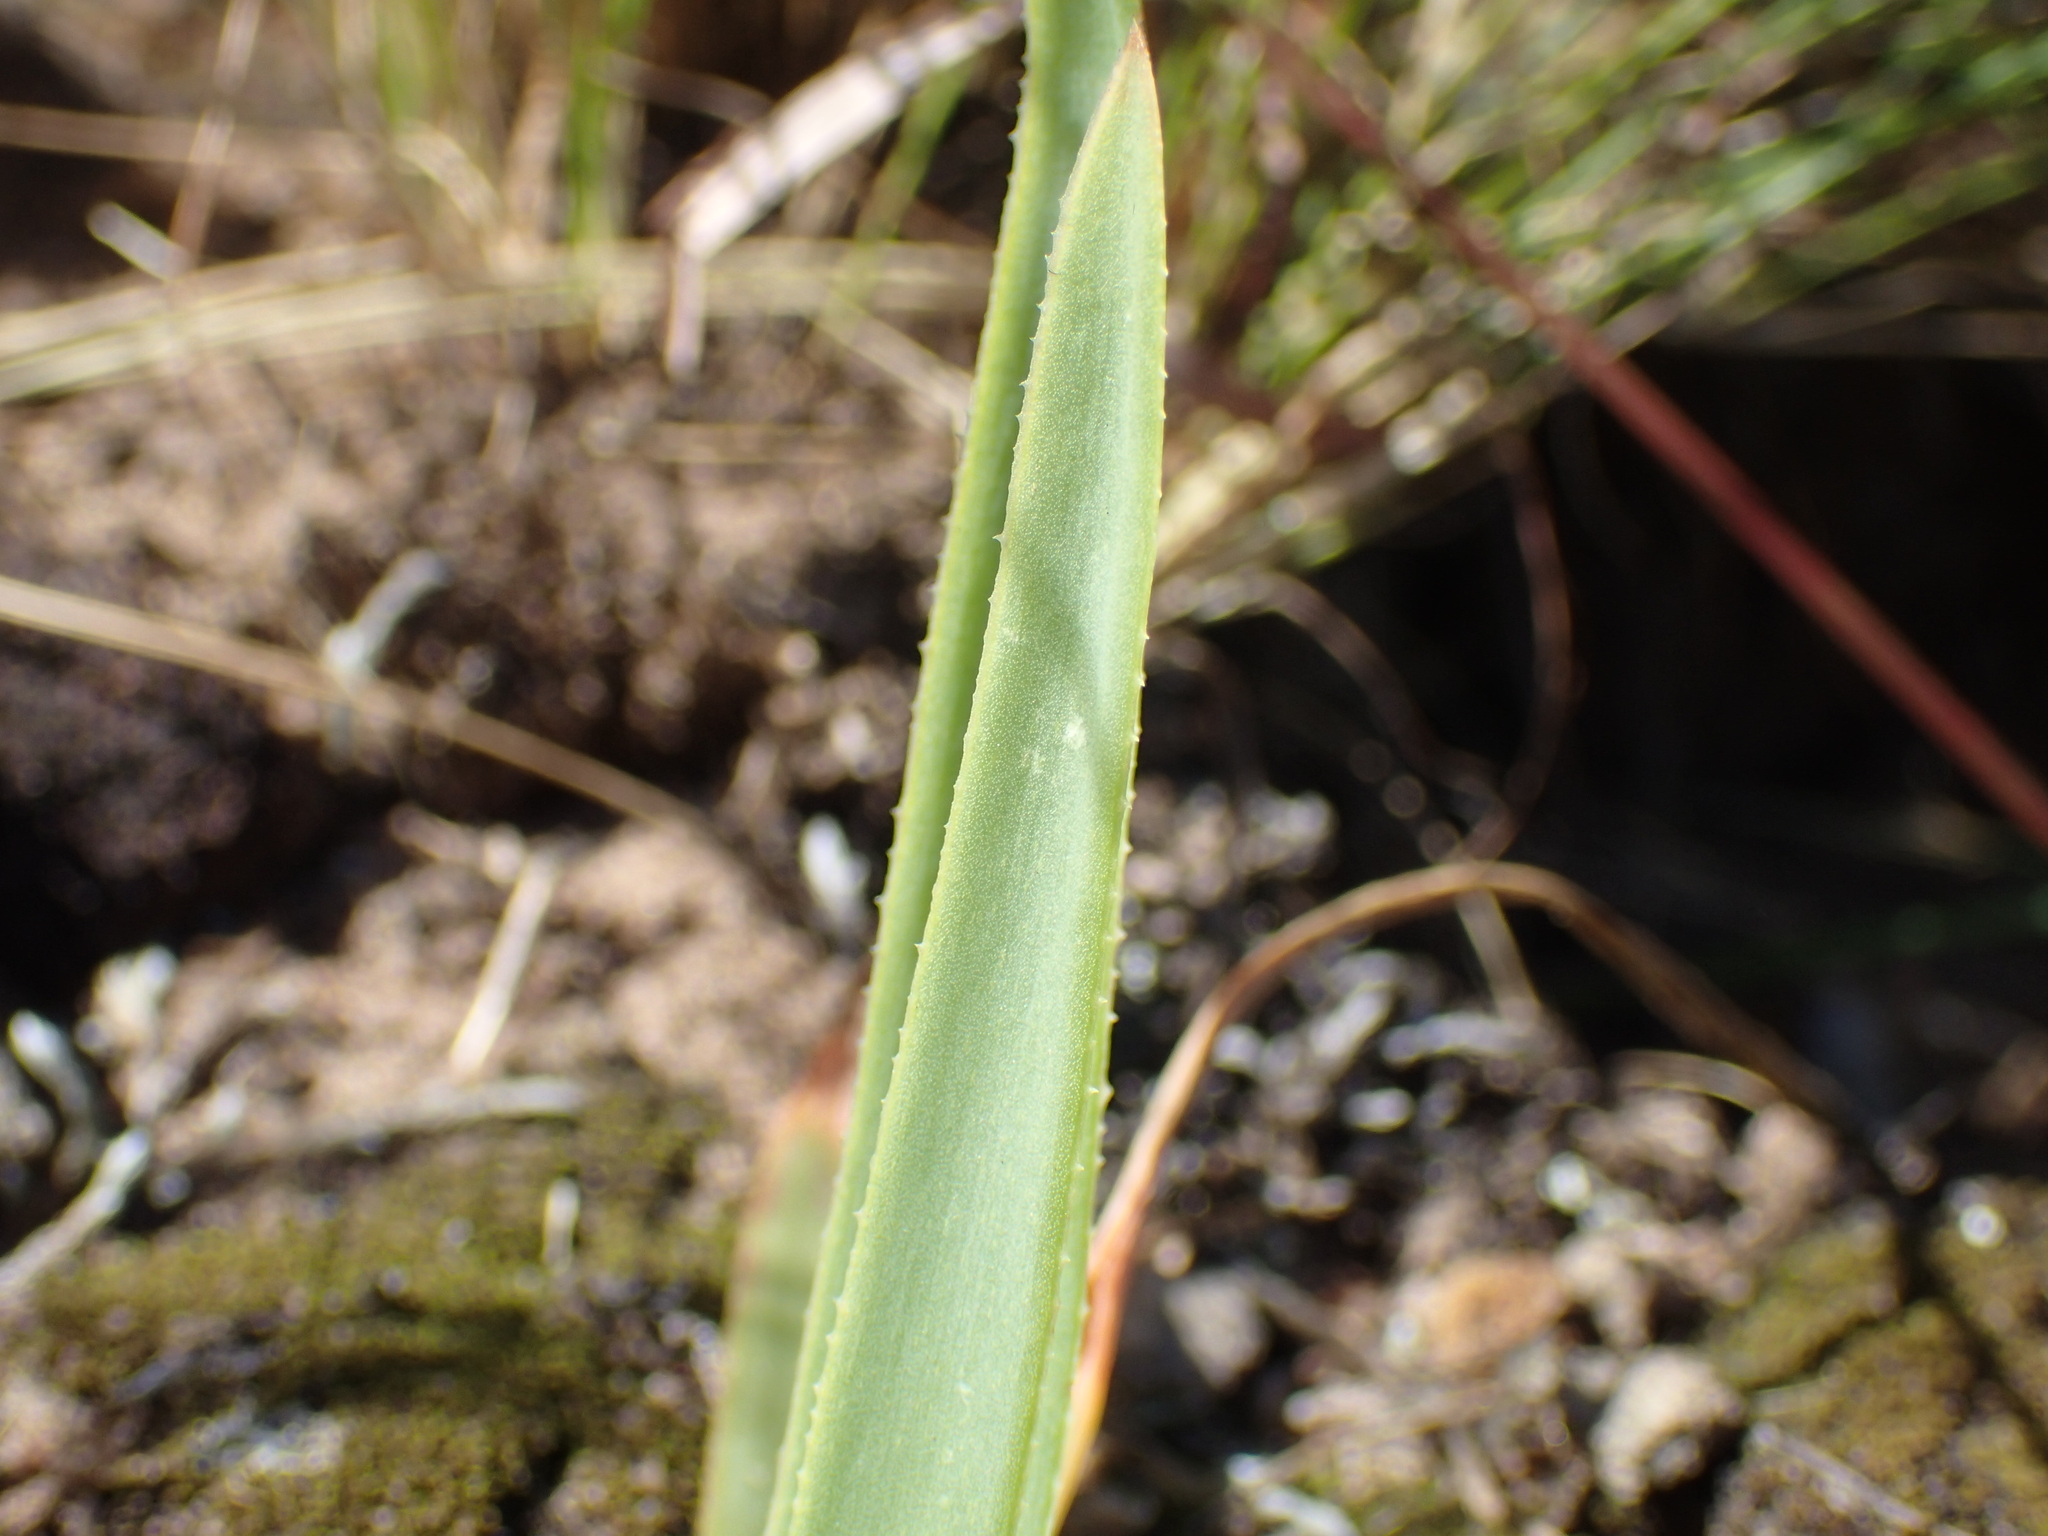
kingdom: Plantae
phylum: Tracheophyta
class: Liliopsida
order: Asparagales
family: Asphodelaceae
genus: Aloe
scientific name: Aloe linearifolia
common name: Dwarf yellow grass aloe
